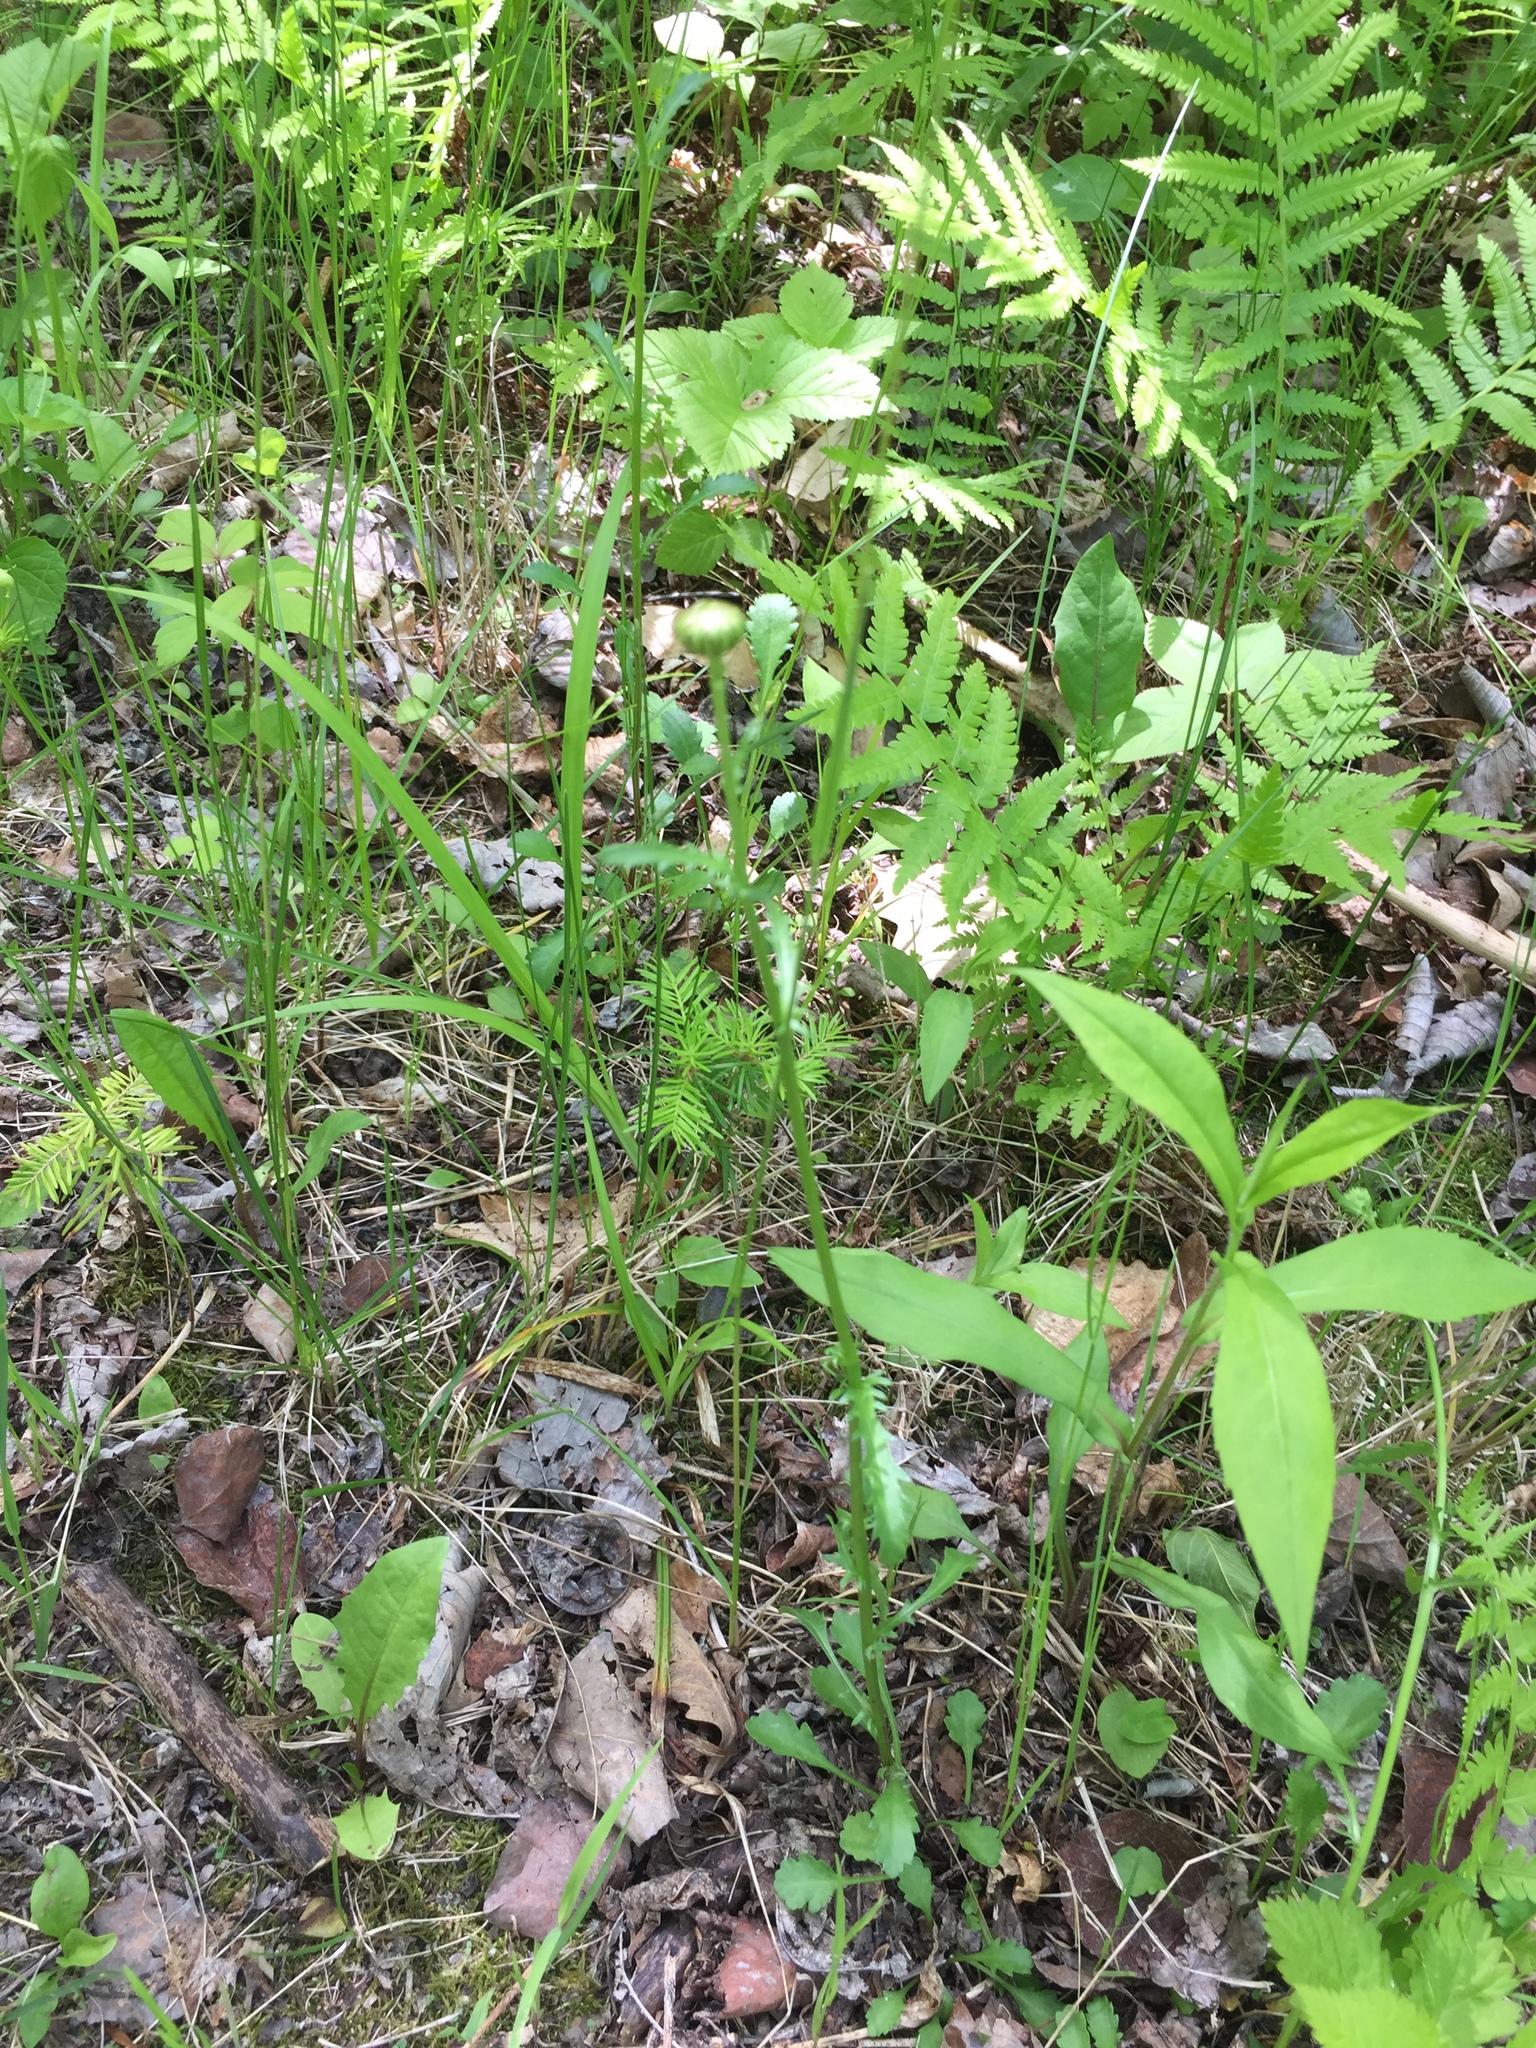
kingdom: Plantae
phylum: Tracheophyta
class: Magnoliopsida
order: Asterales
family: Asteraceae
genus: Leucanthemum
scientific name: Leucanthemum vulgare
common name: Oxeye daisy
